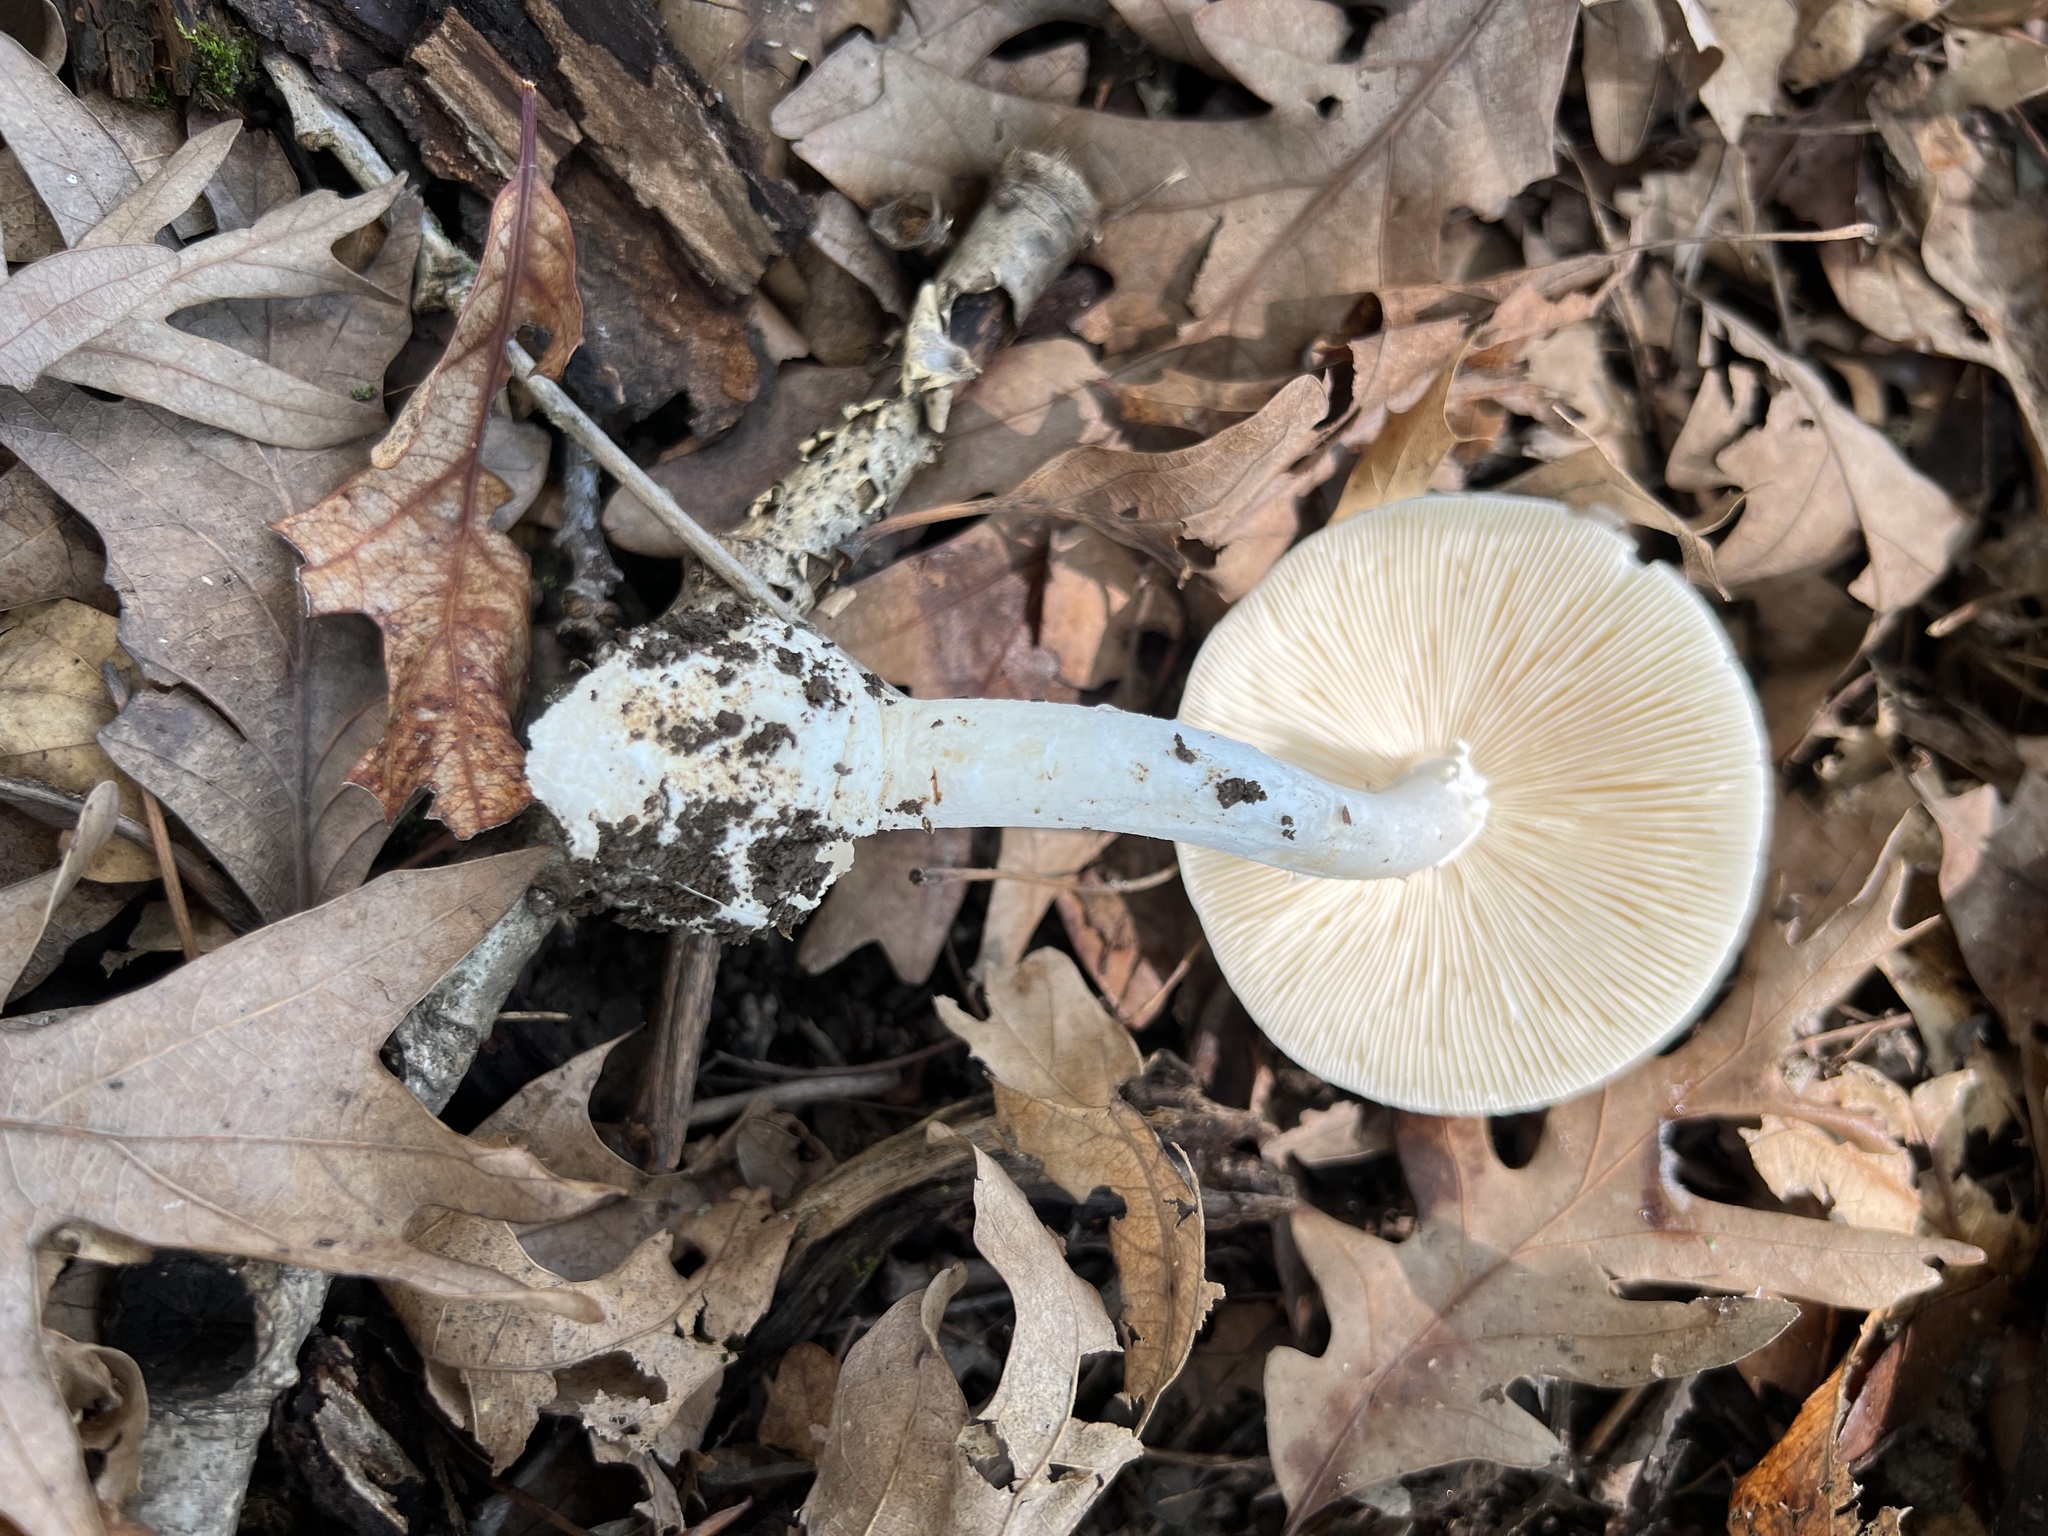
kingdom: Fungi
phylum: Basidiomycota
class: Agaricomycetes
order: Agaricales
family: Amanitaceae
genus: Amanita
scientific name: Amanita bisporigera
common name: Eastern north american destroying angel
